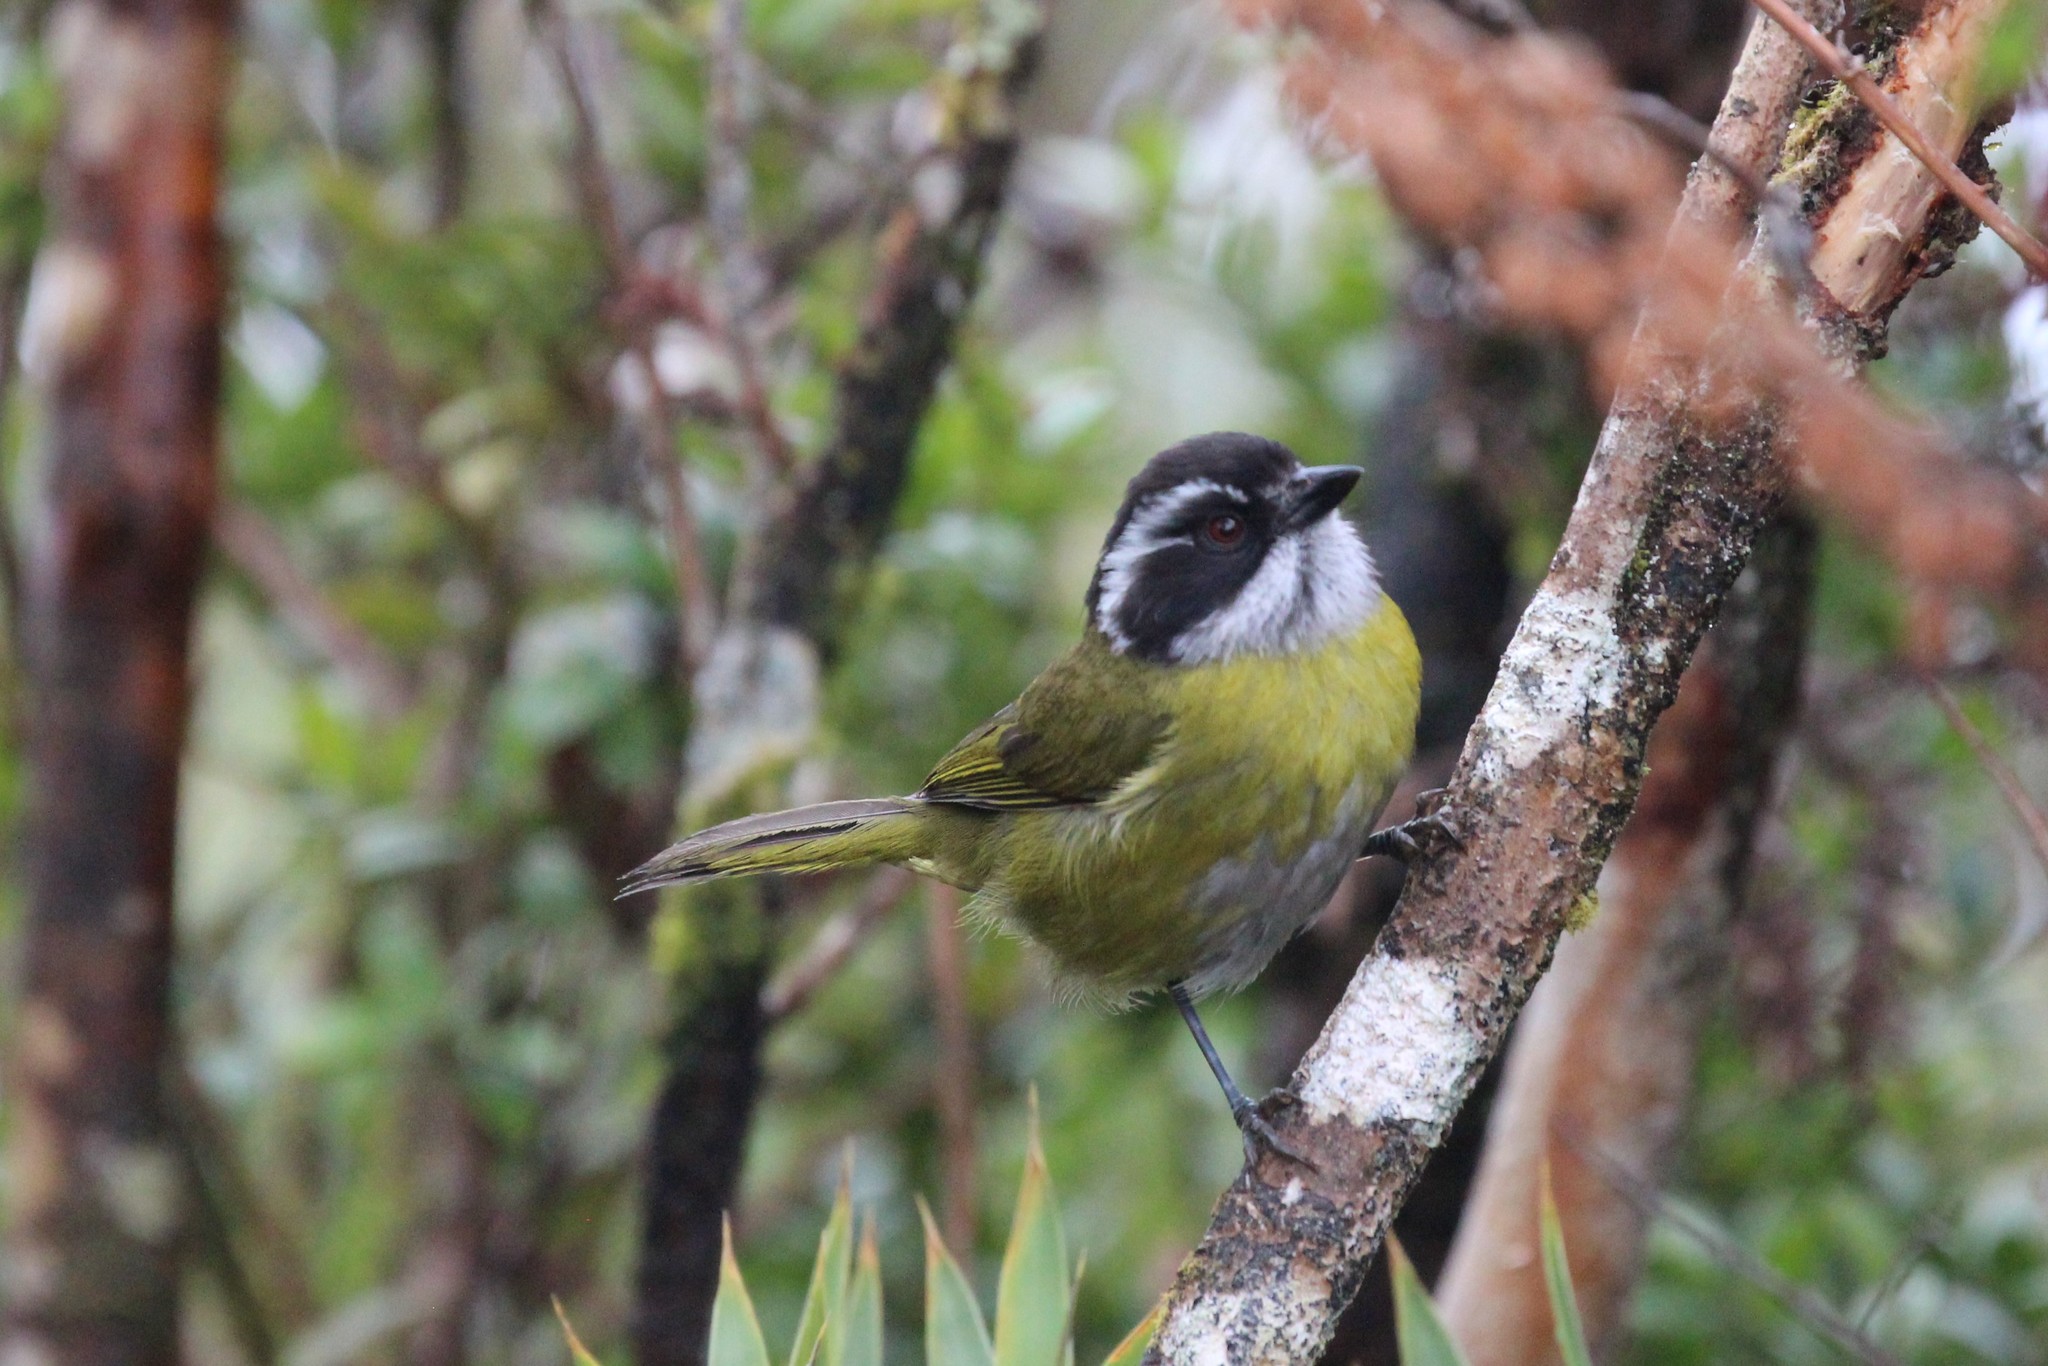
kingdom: Animalia
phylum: Chordata
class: Aves
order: Passeriformes
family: Passerellidae
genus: Chlorospingus
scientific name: Chlorospingus pileatus
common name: Sooty-capped bush-tanager
